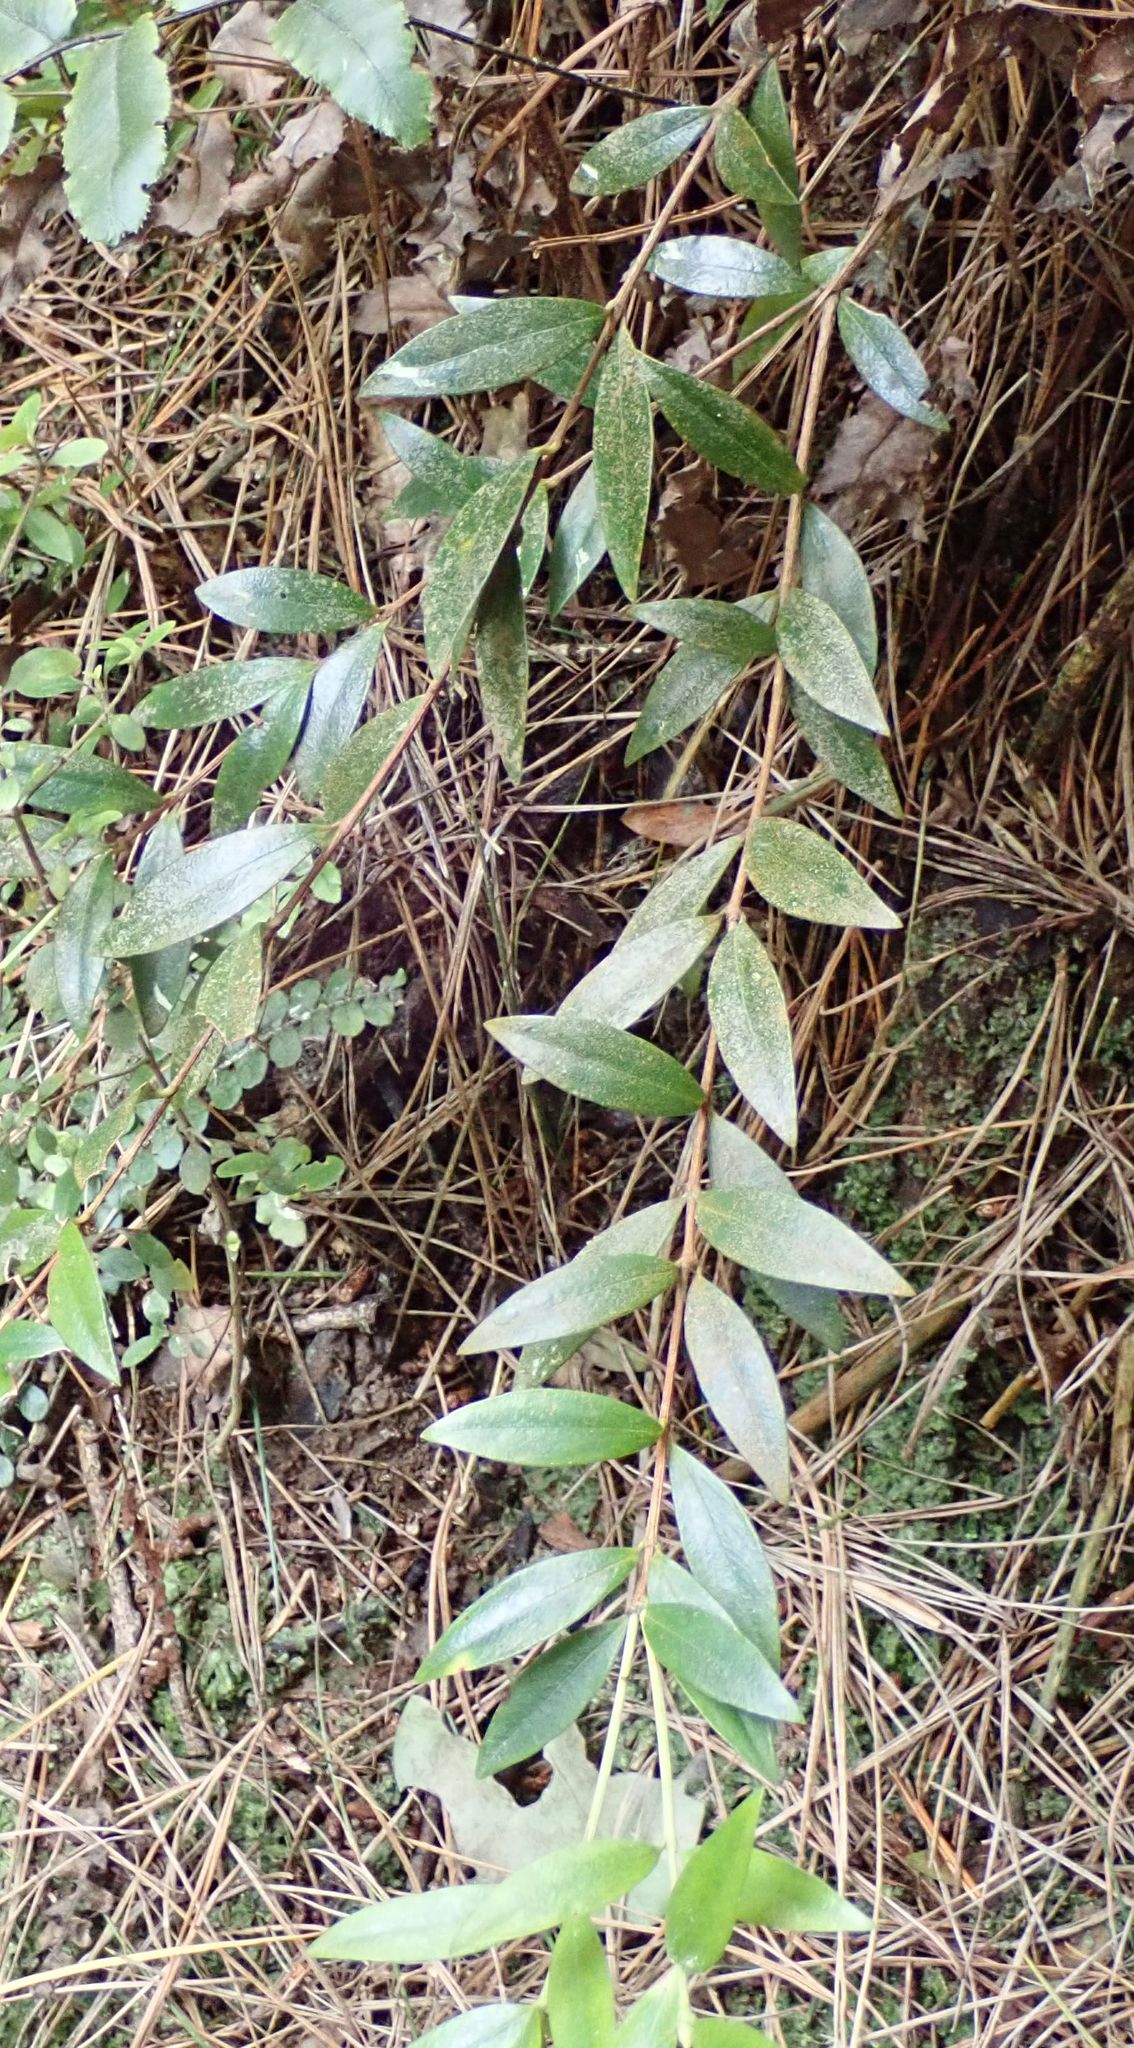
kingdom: Plantae
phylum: Tracheophyta
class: Magnoliopsida
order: Myrtales
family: Myrtaceae
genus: Metrosideros
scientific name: Metrosideros umbellata
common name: Southern rata
